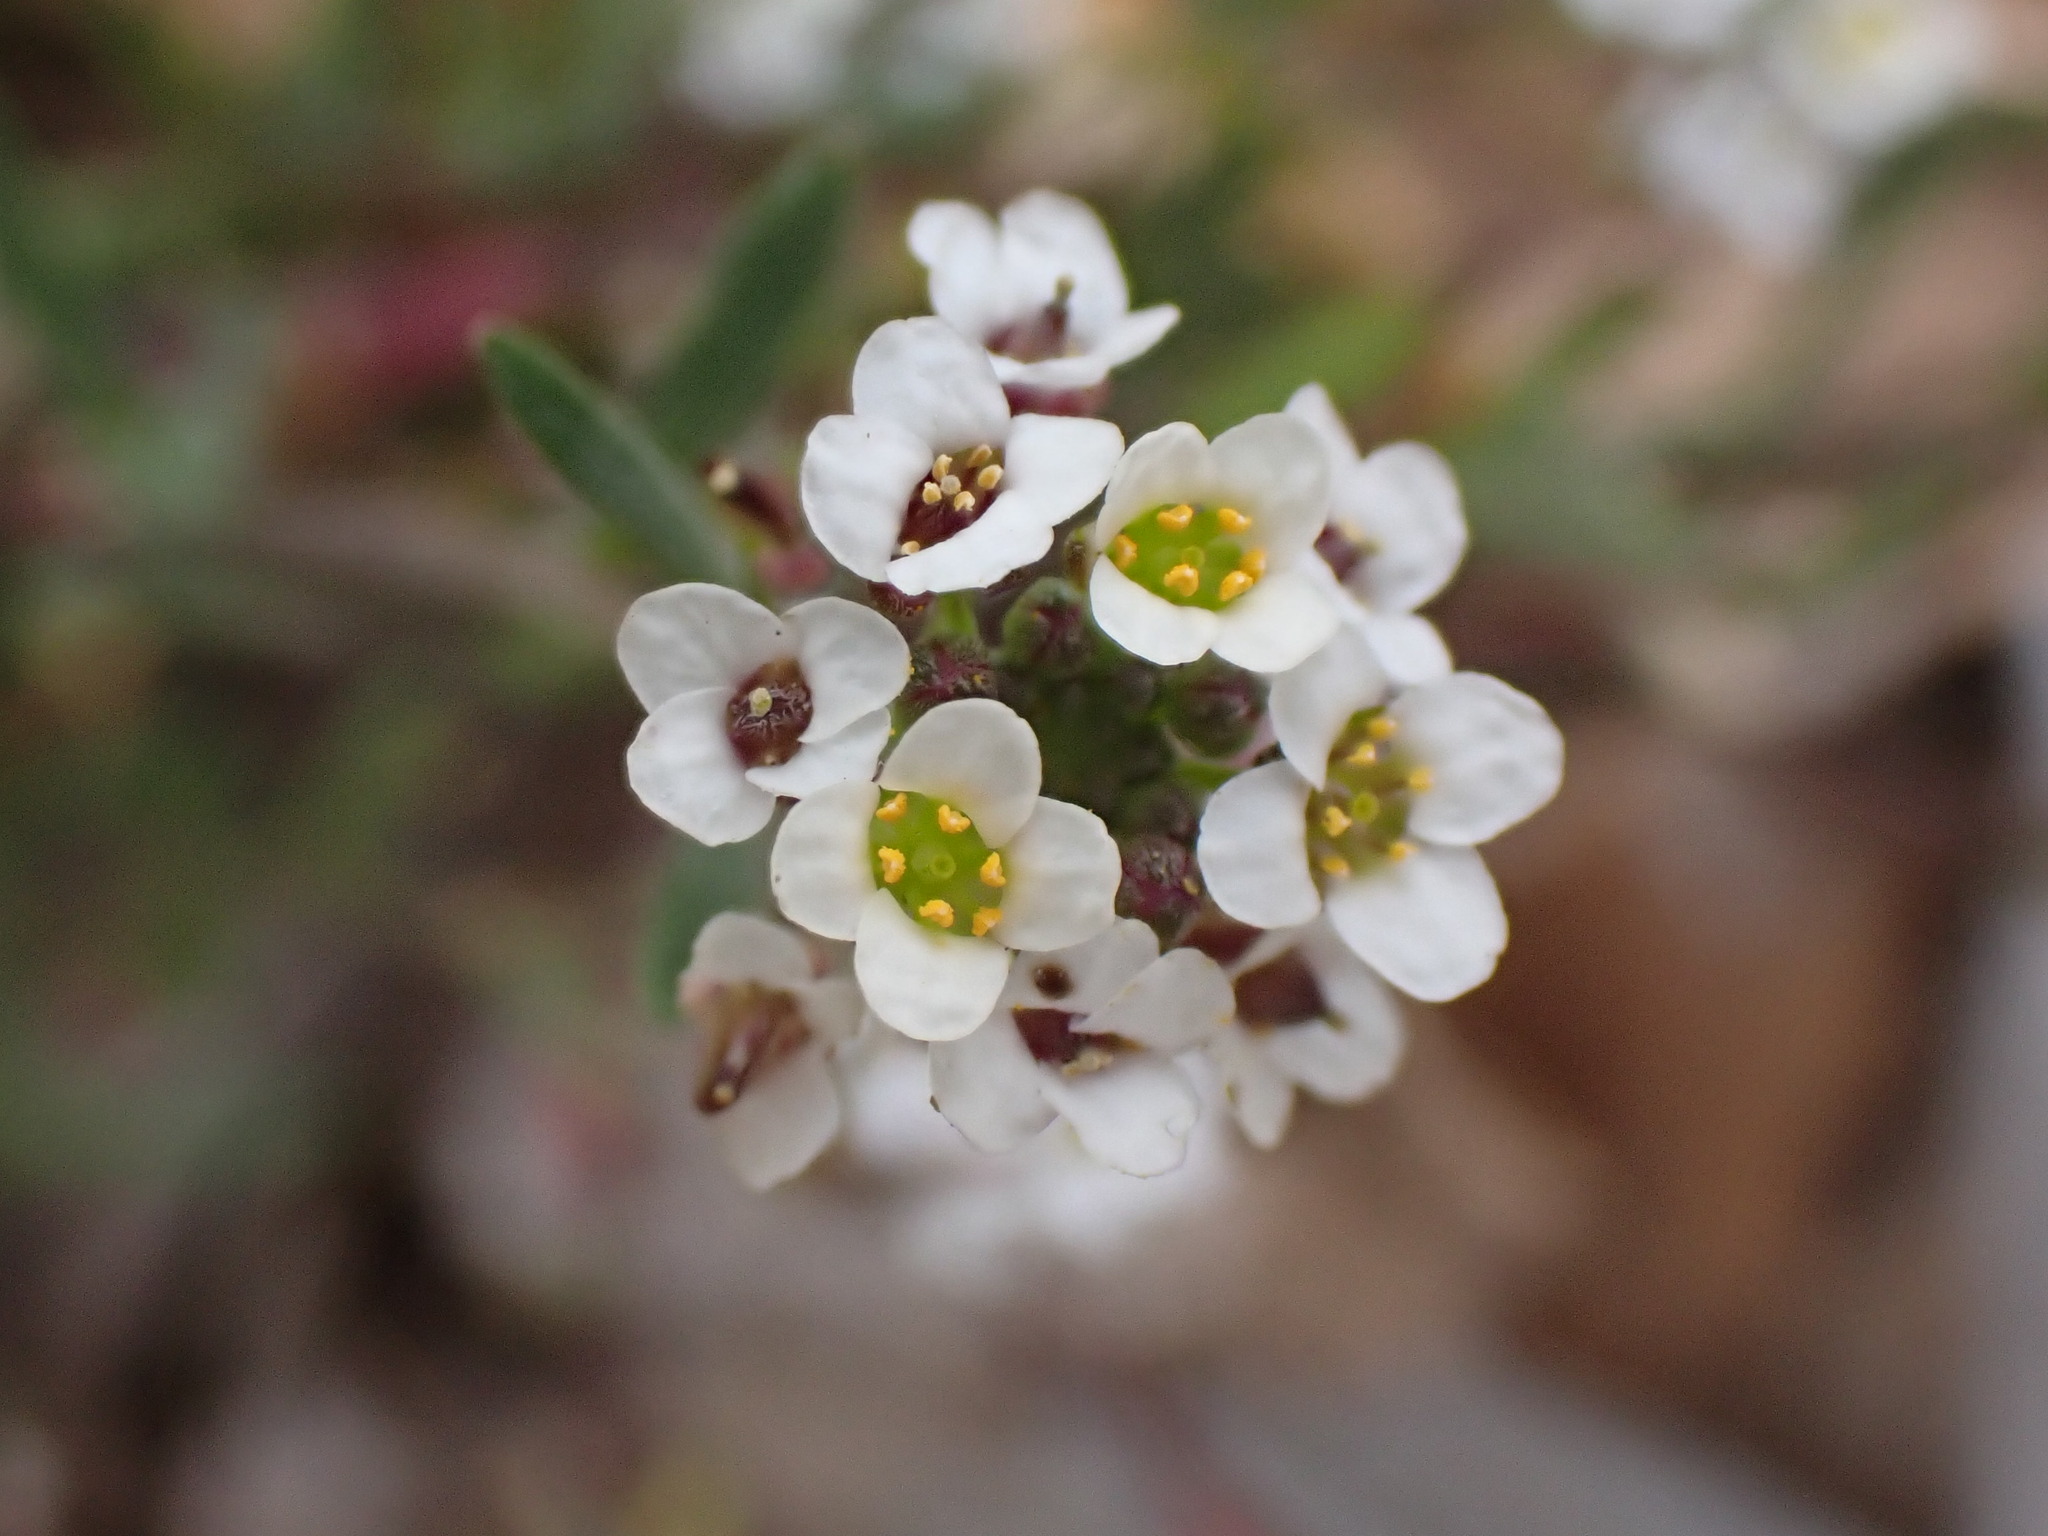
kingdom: Plantae
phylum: Tracheophyta
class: Magnoliopsida
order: Brassicales
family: Brassicaceae
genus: Lobularia
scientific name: Lobularia maritima
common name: Sweet alison
